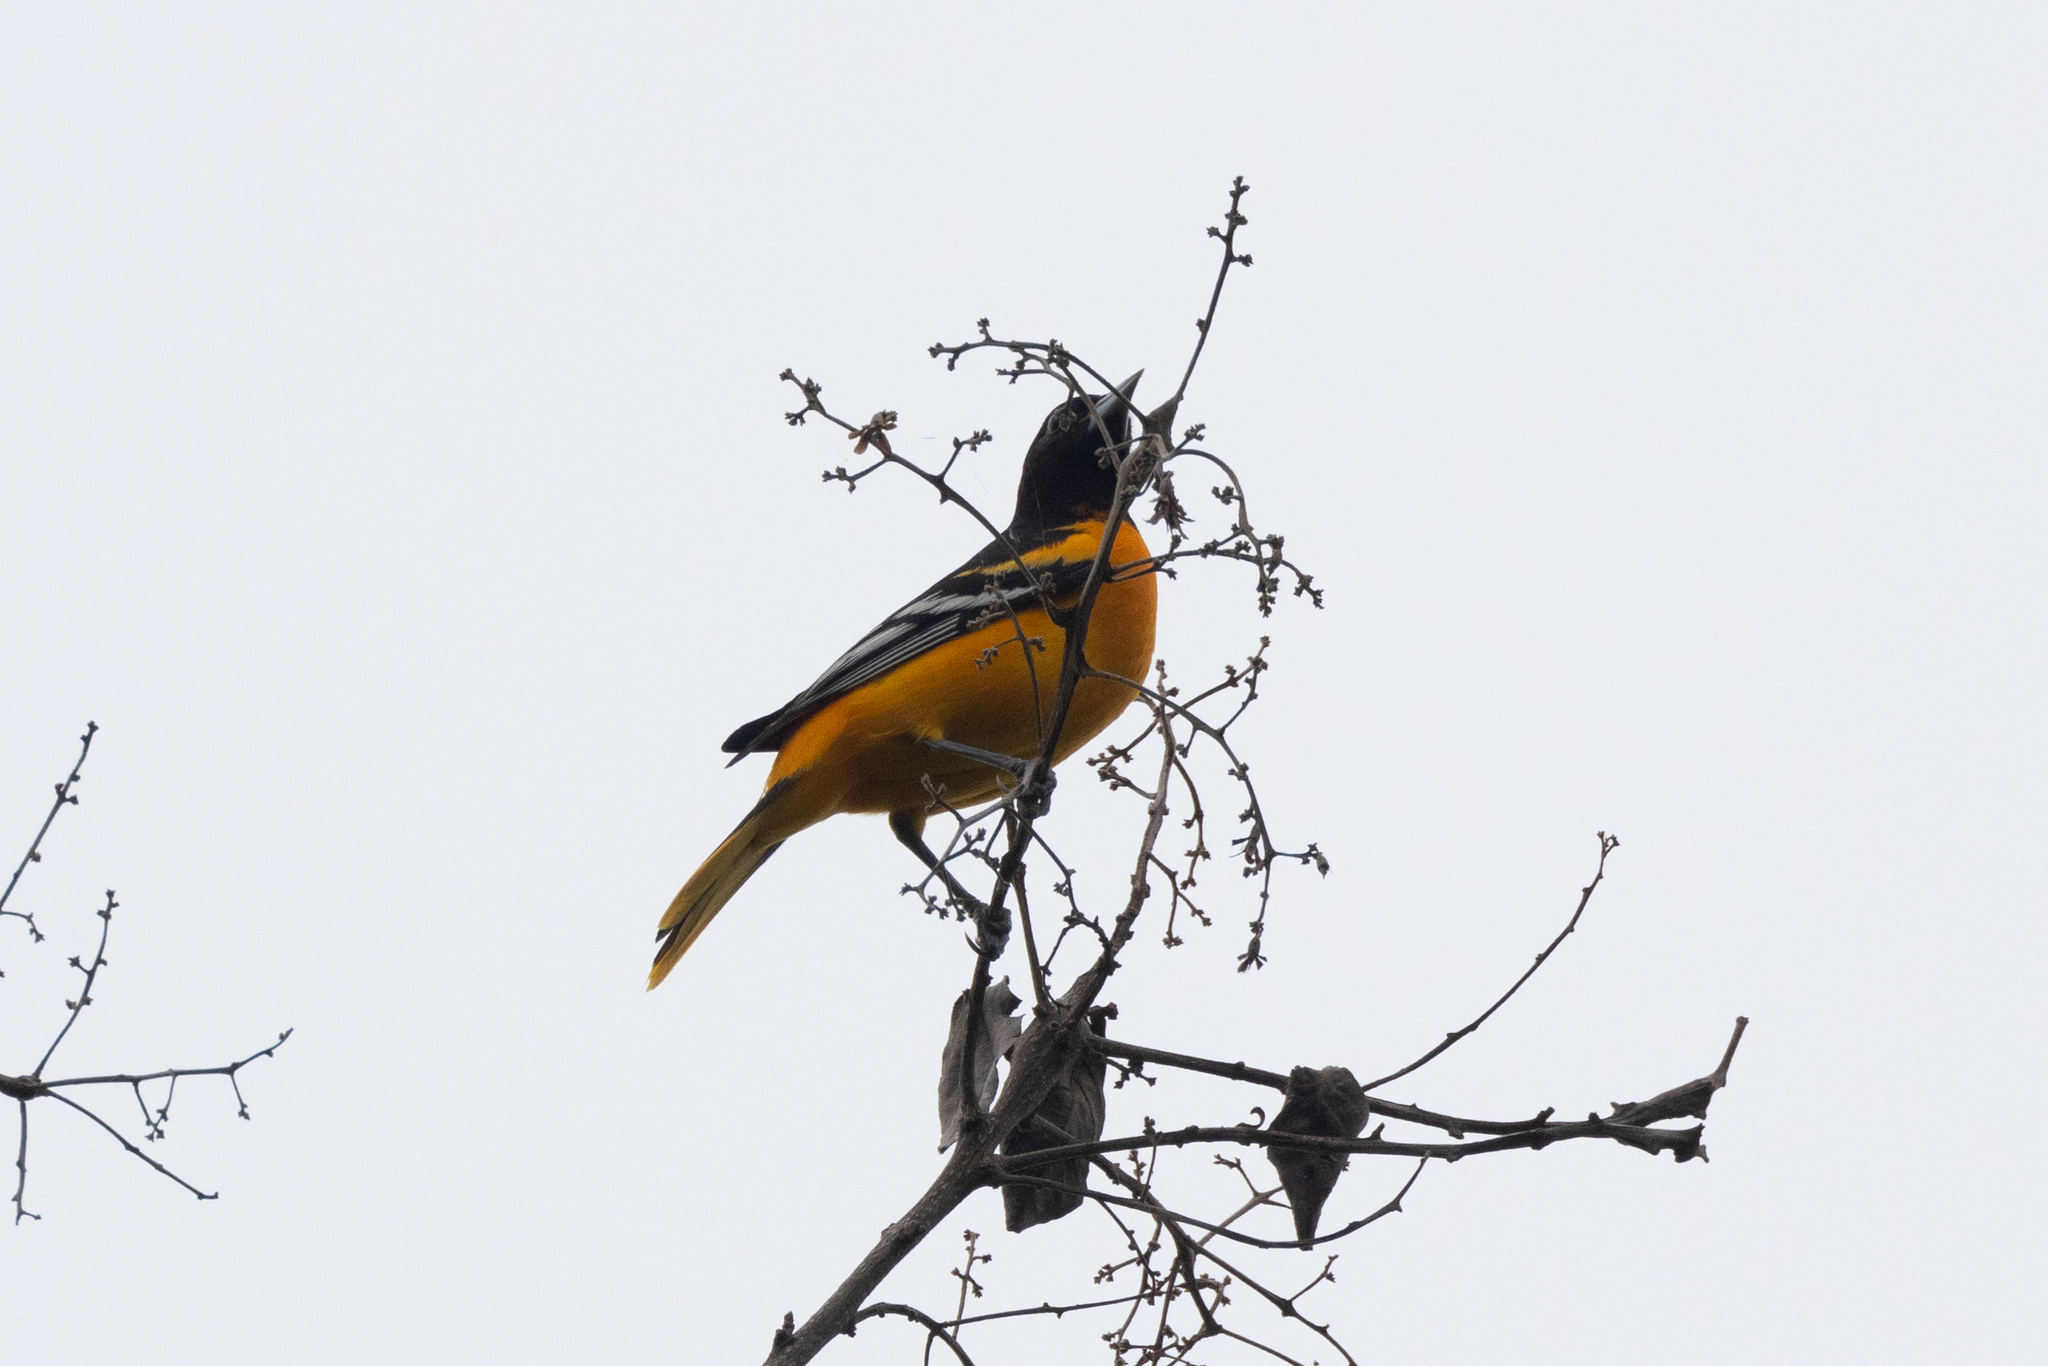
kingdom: Animalia
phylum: Chordata
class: Aves
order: Passeriformes
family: Icteridae
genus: Icterus
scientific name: Icterus galbula
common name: Baltimore oriole
